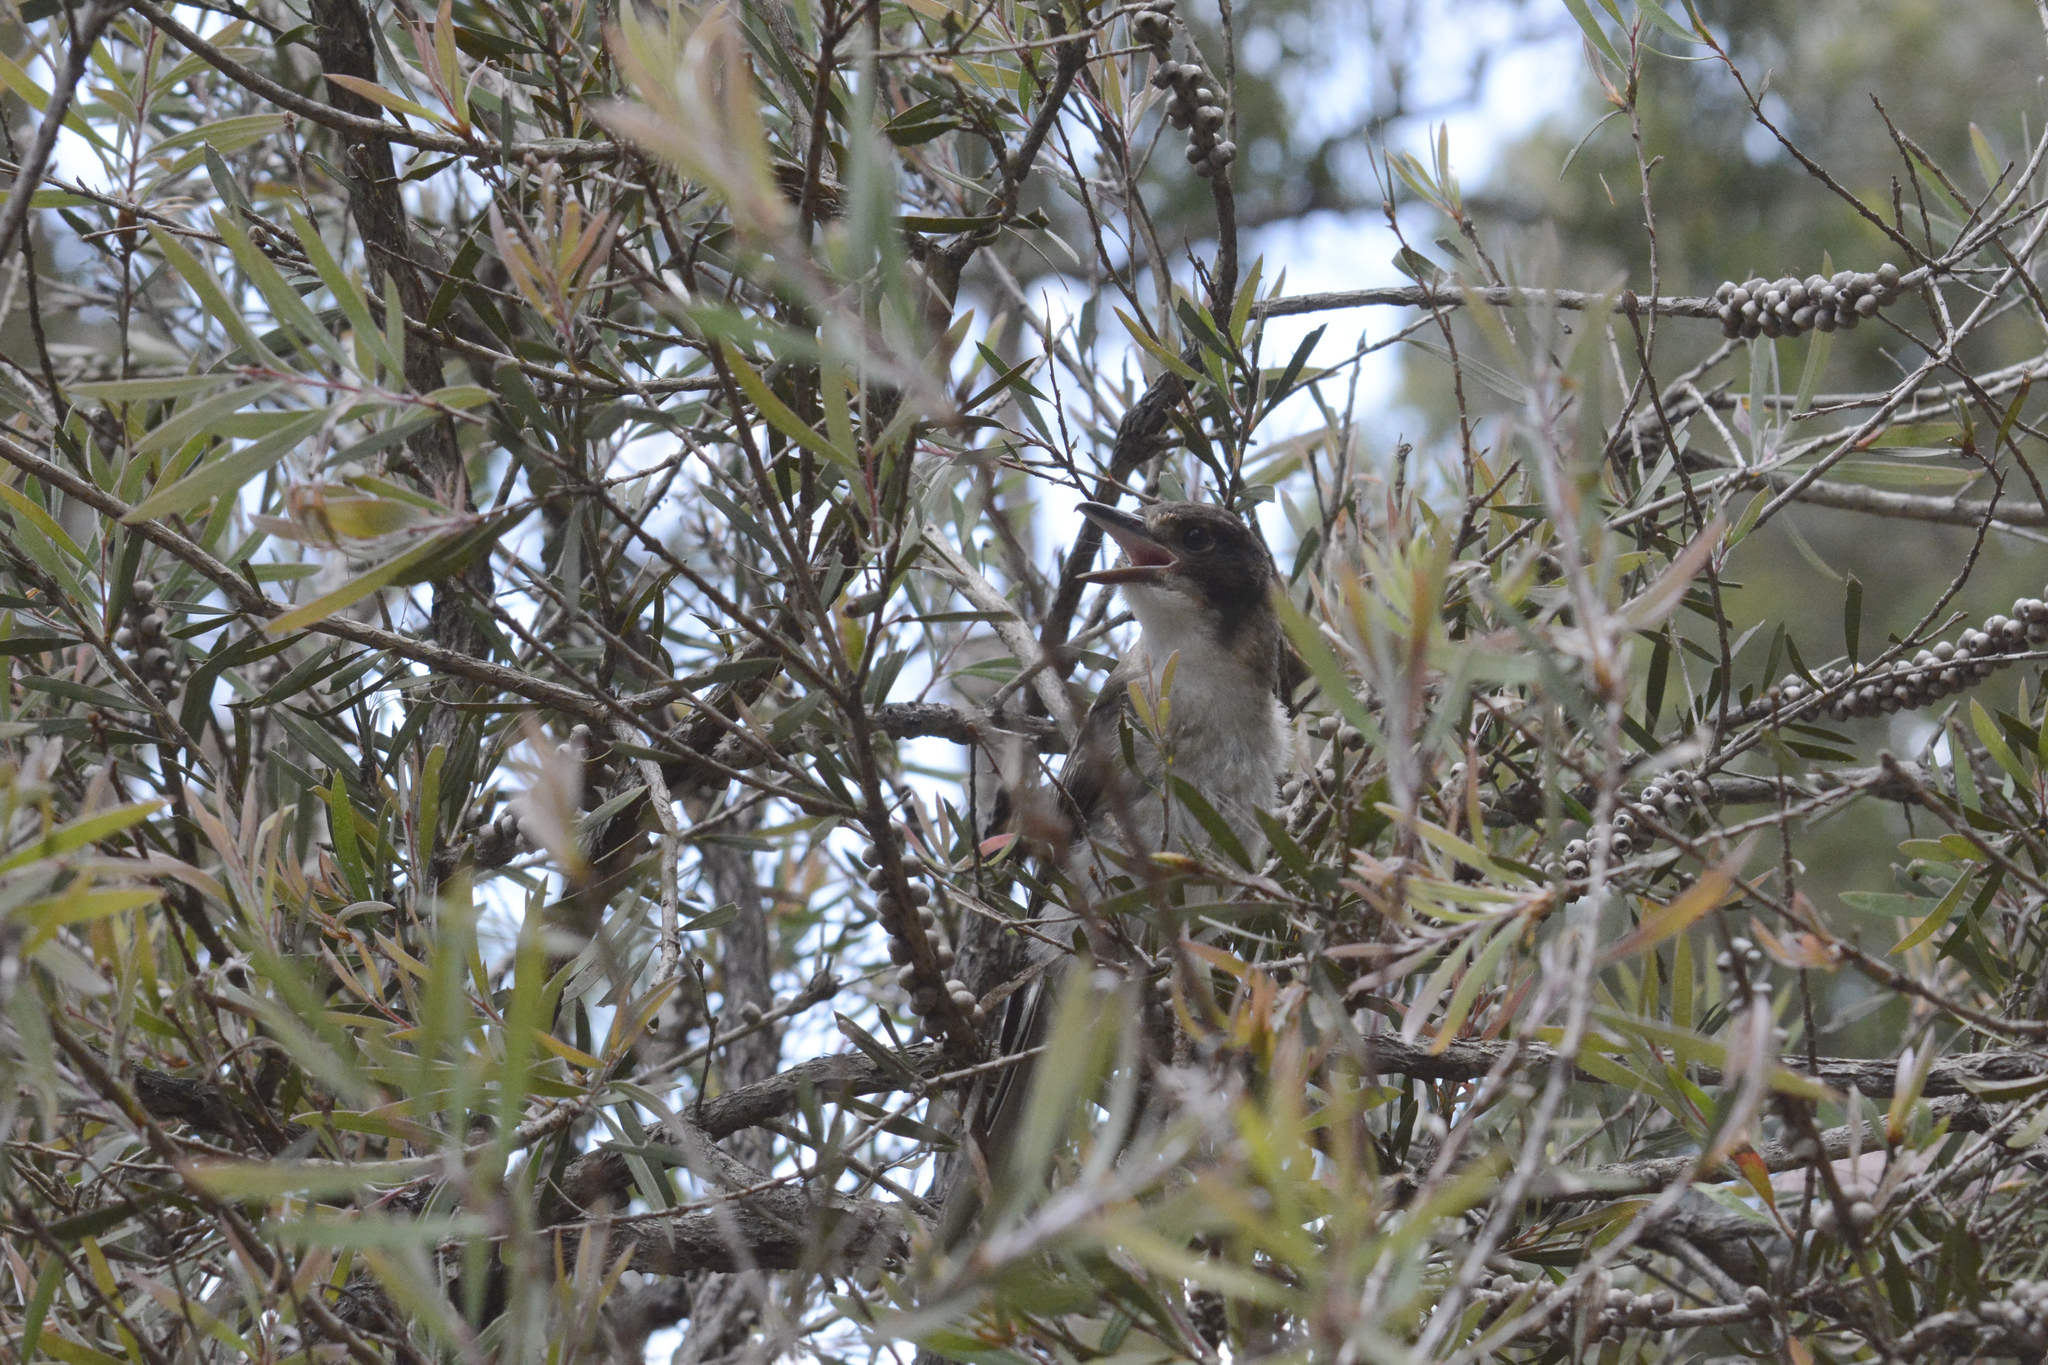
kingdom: Animalia
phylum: Chordata
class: Aves
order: Passeriformes
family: Cracticidae
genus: Cracticus
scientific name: Cracticus torquatus
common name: Grey butcherbird
